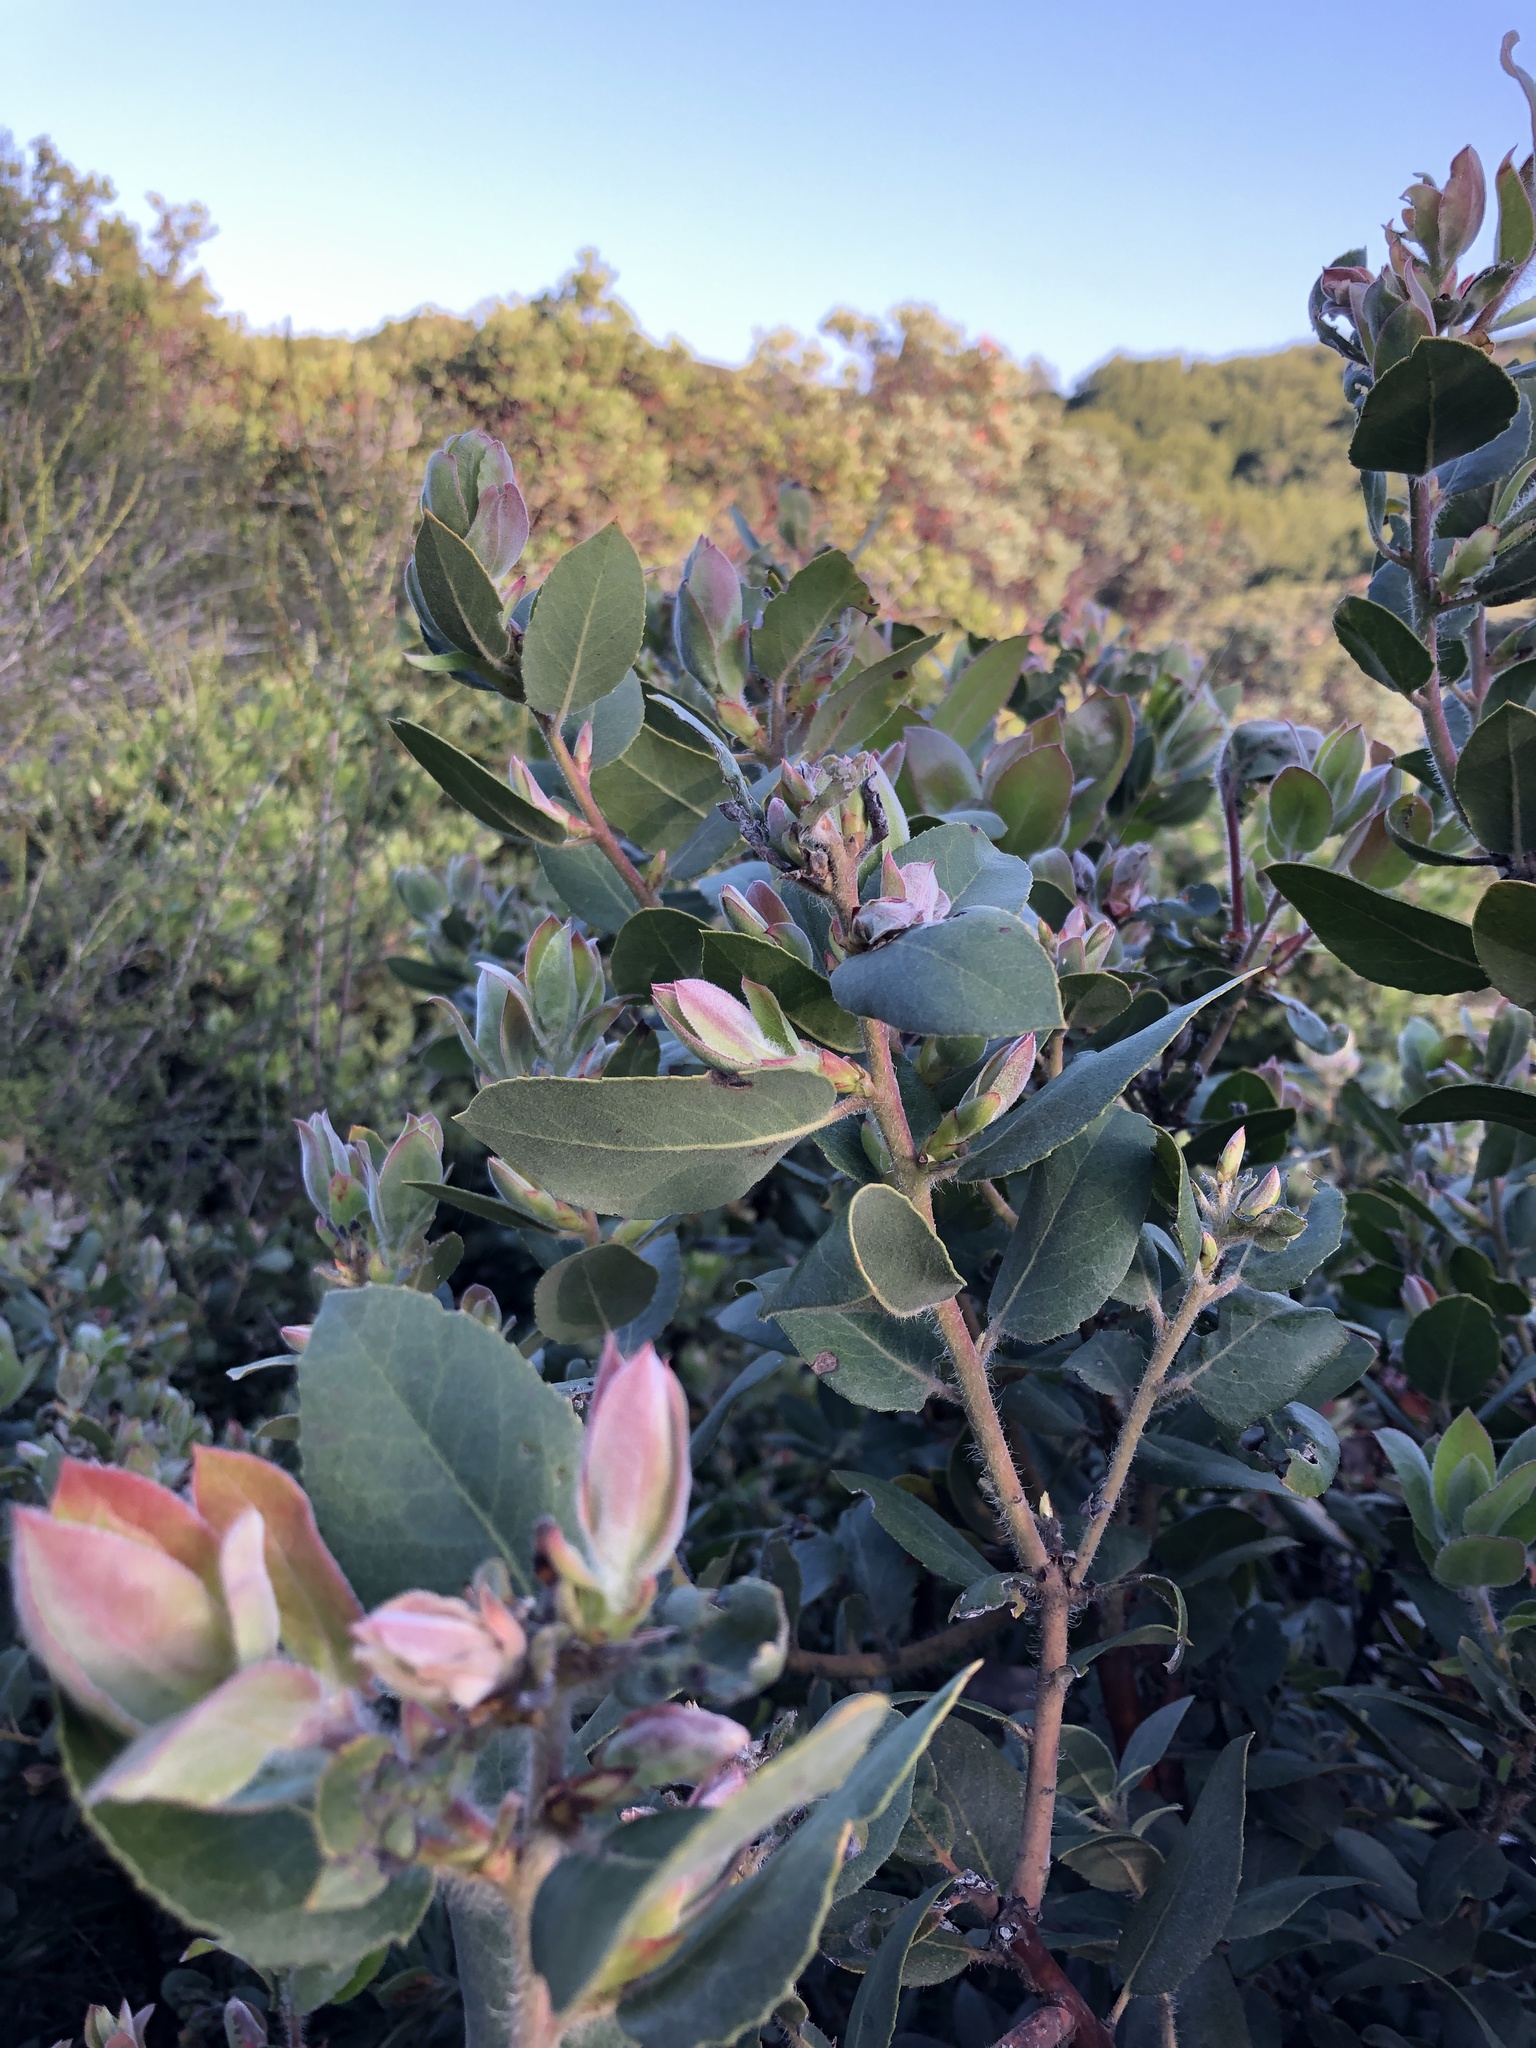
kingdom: Plantae
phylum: Tracheophyta
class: Magnoliopsida
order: Ericales
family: Ericaceae
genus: Arctostaphylos
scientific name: Arctostaphylos crustacea
